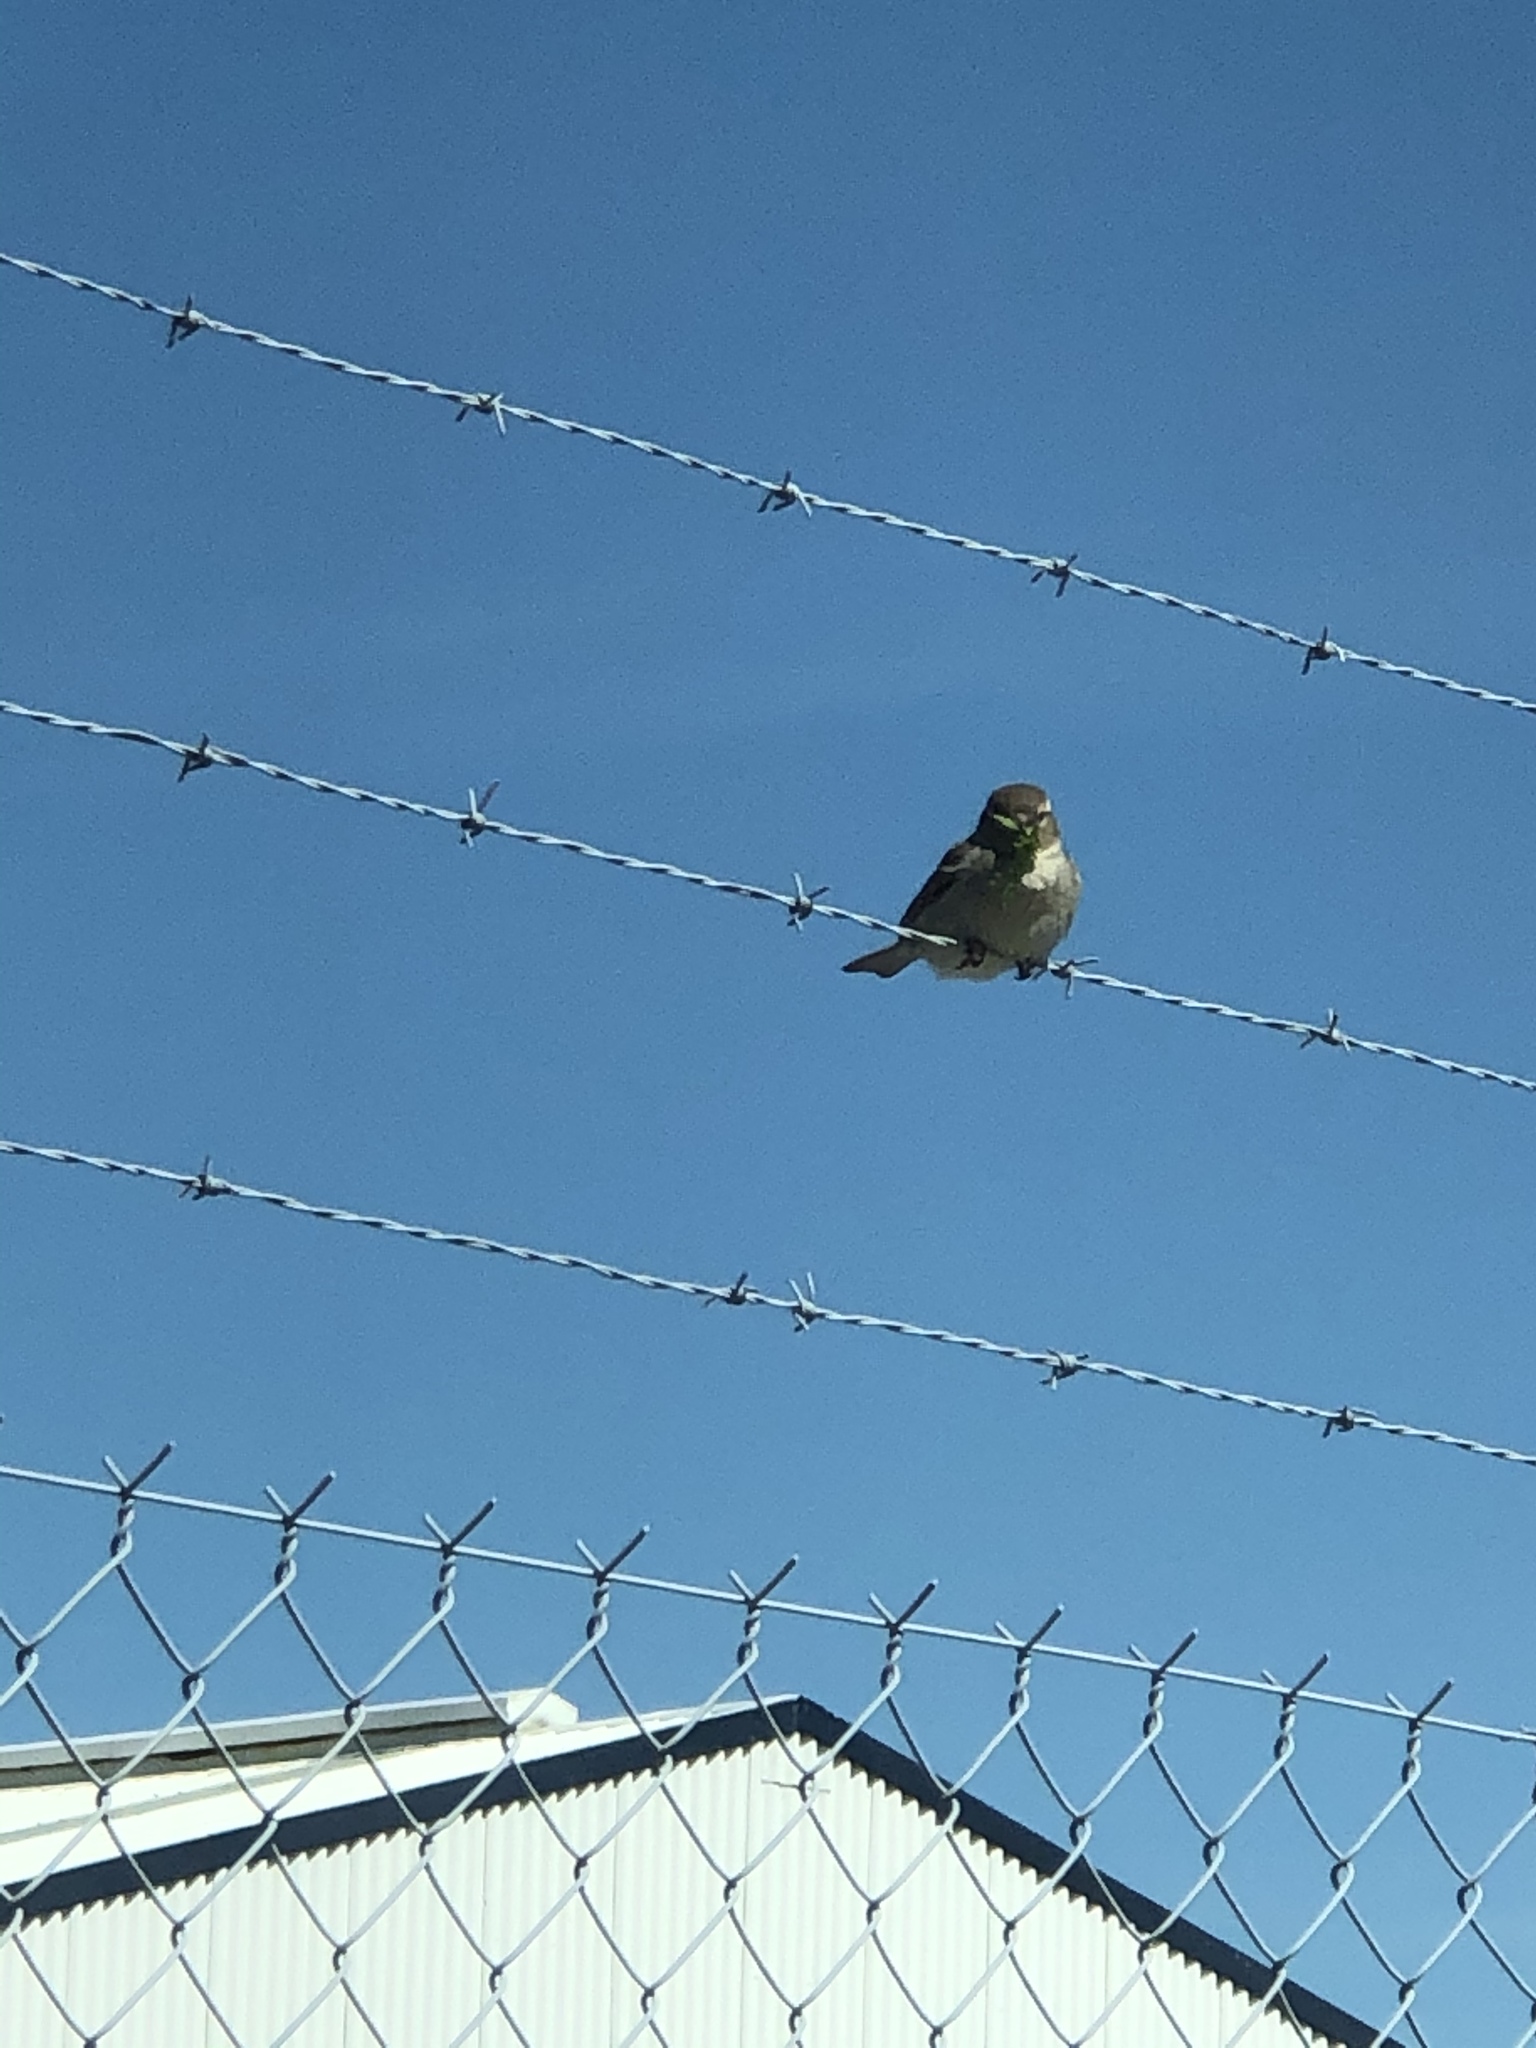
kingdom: Animalia
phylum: Chordata
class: Aves
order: Passeriformes
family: Passeridae
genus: Passer
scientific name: Passer domesticus
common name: House sparrow
